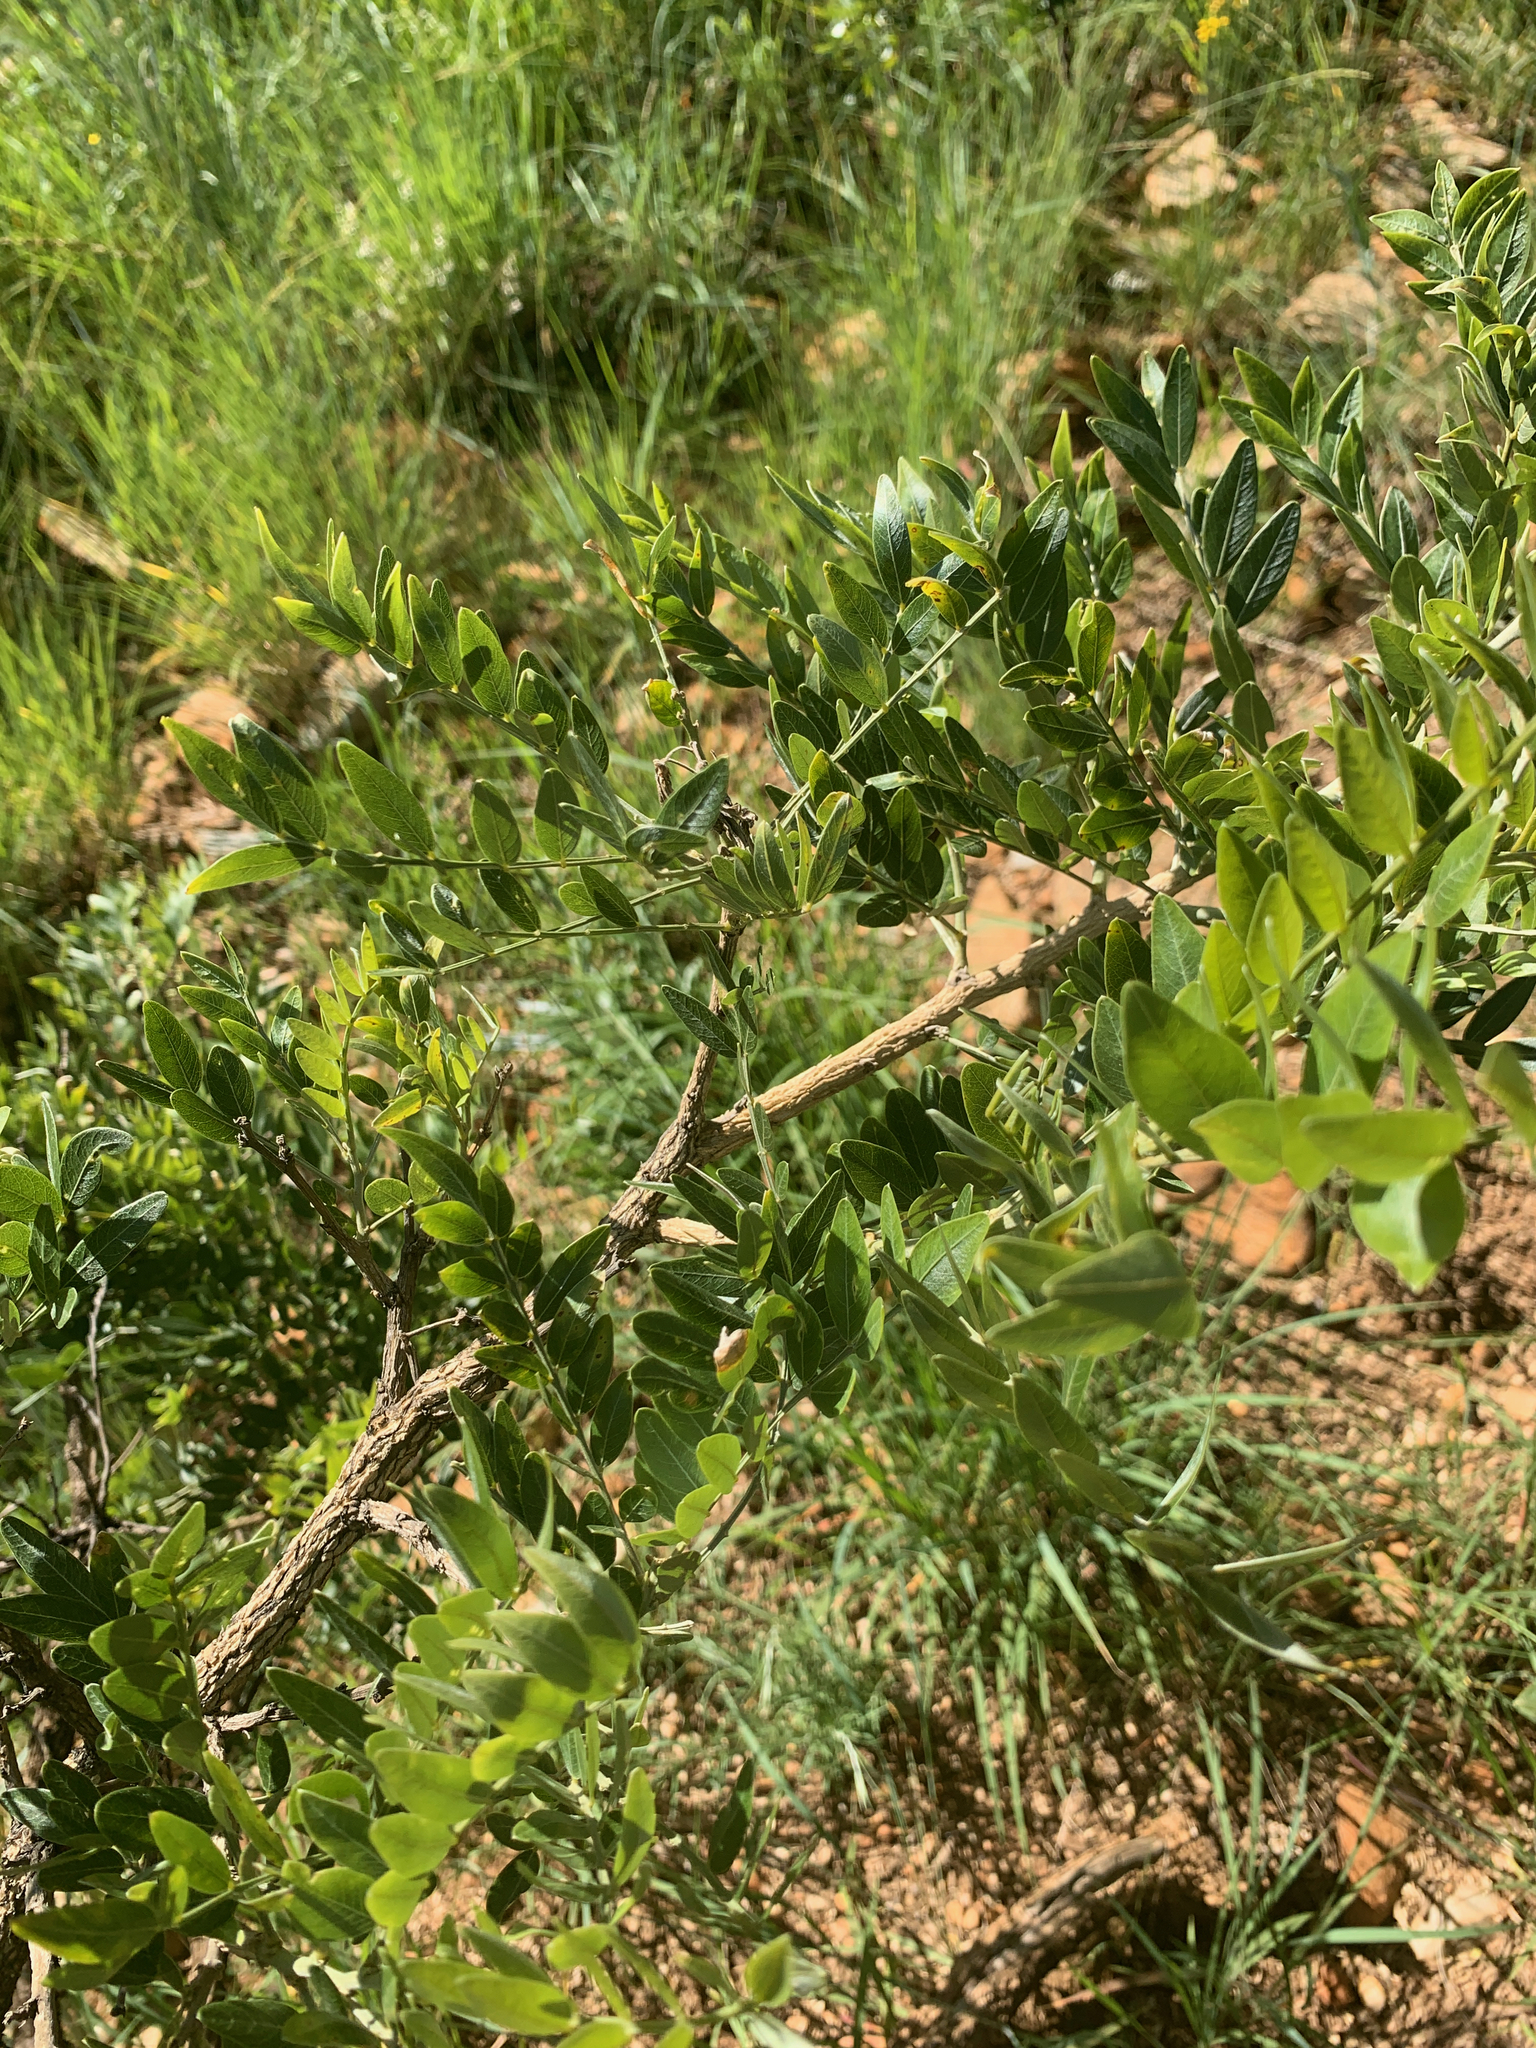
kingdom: Plantae
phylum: Tracheophyta
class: Magnoliopsida
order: Fabales
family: Fabaceae
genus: Mundulea
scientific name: Mundulea sericea
